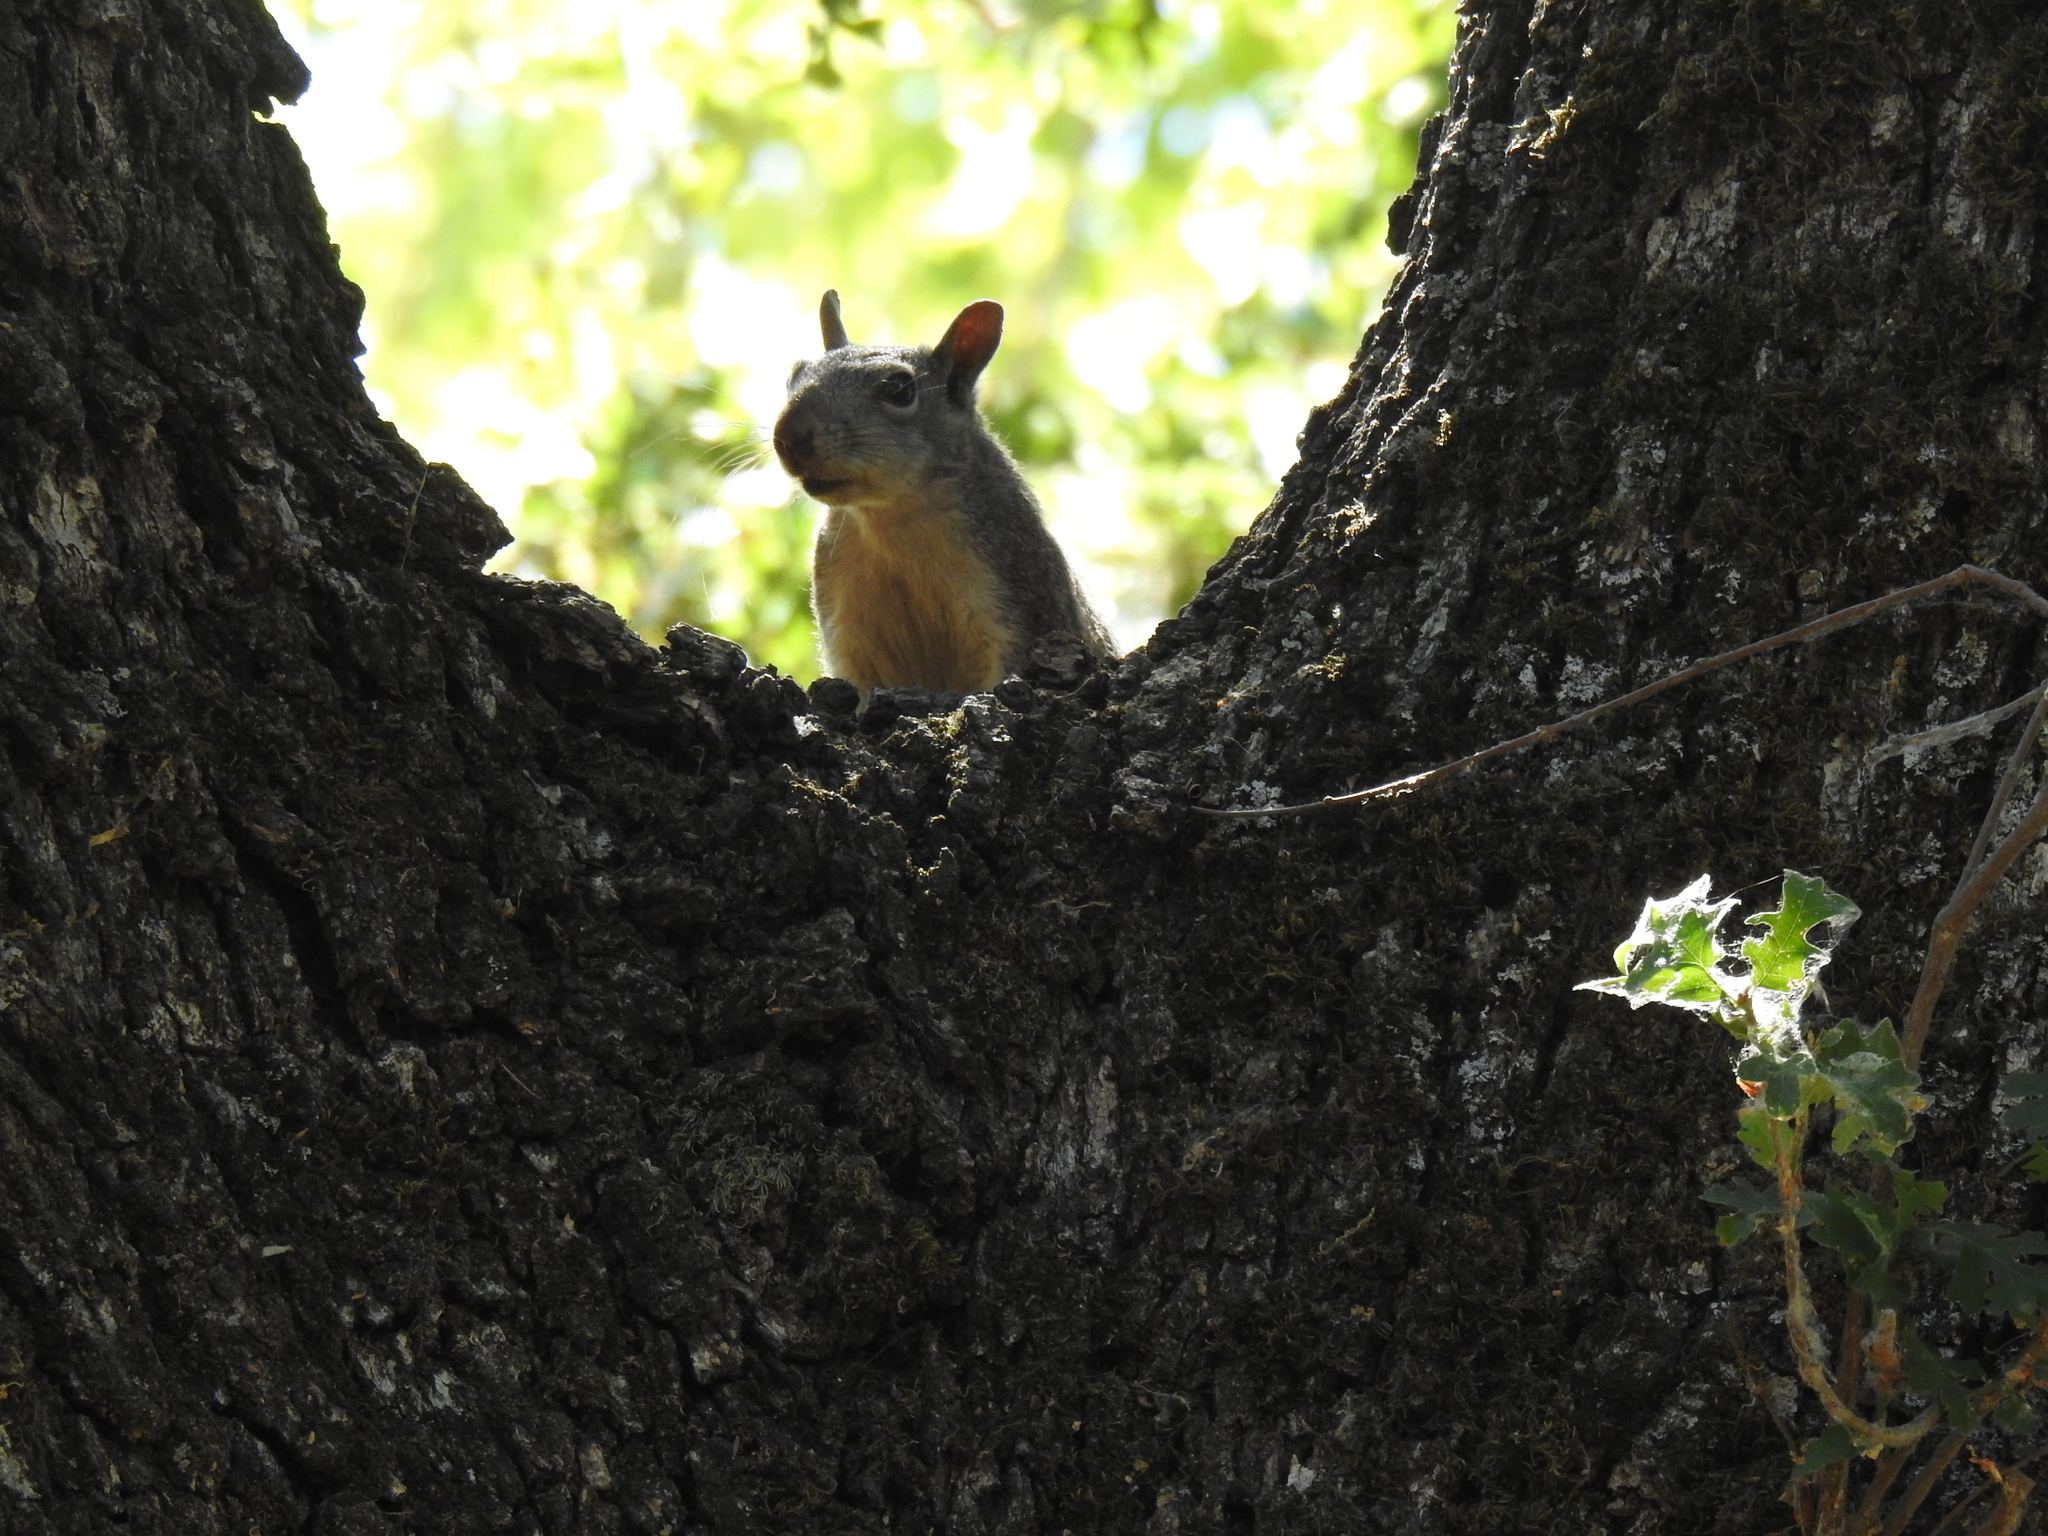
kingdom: Animalia
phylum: Chordata
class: Mammalia
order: Rodentia
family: Sciuridae
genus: Sciurus
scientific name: Sciurus griseus
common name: Western gray squirrel
